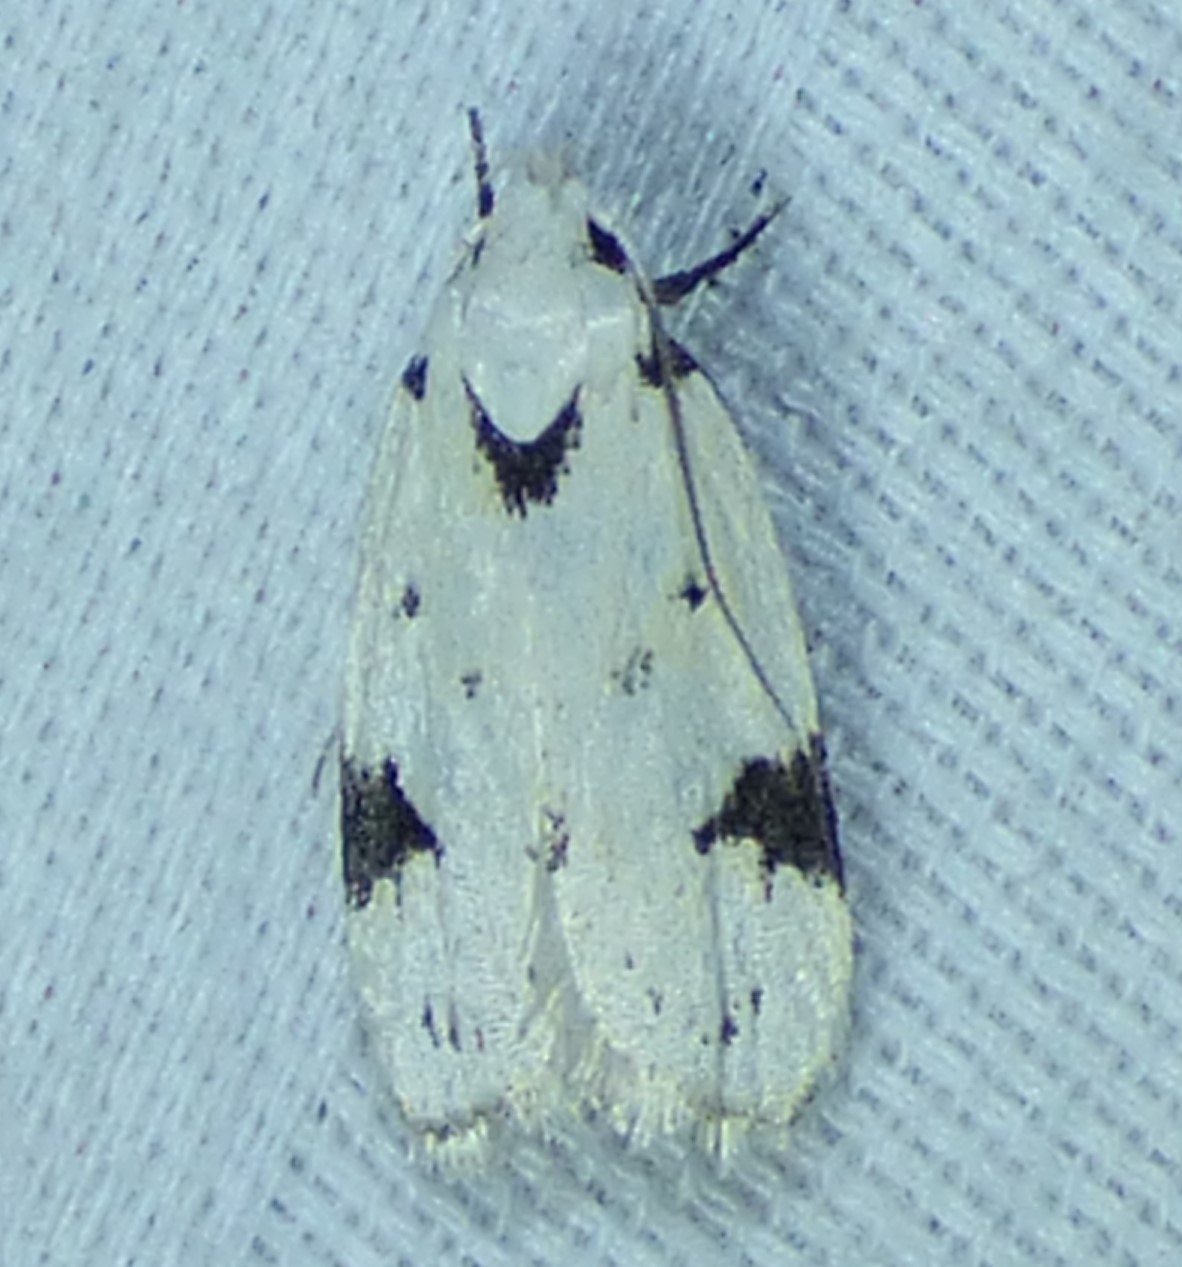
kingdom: Animalia
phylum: Arthropoda
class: Insecta
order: Lepidoptera
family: Oecophoridae
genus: Inga
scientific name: Inga sparsiciliella
